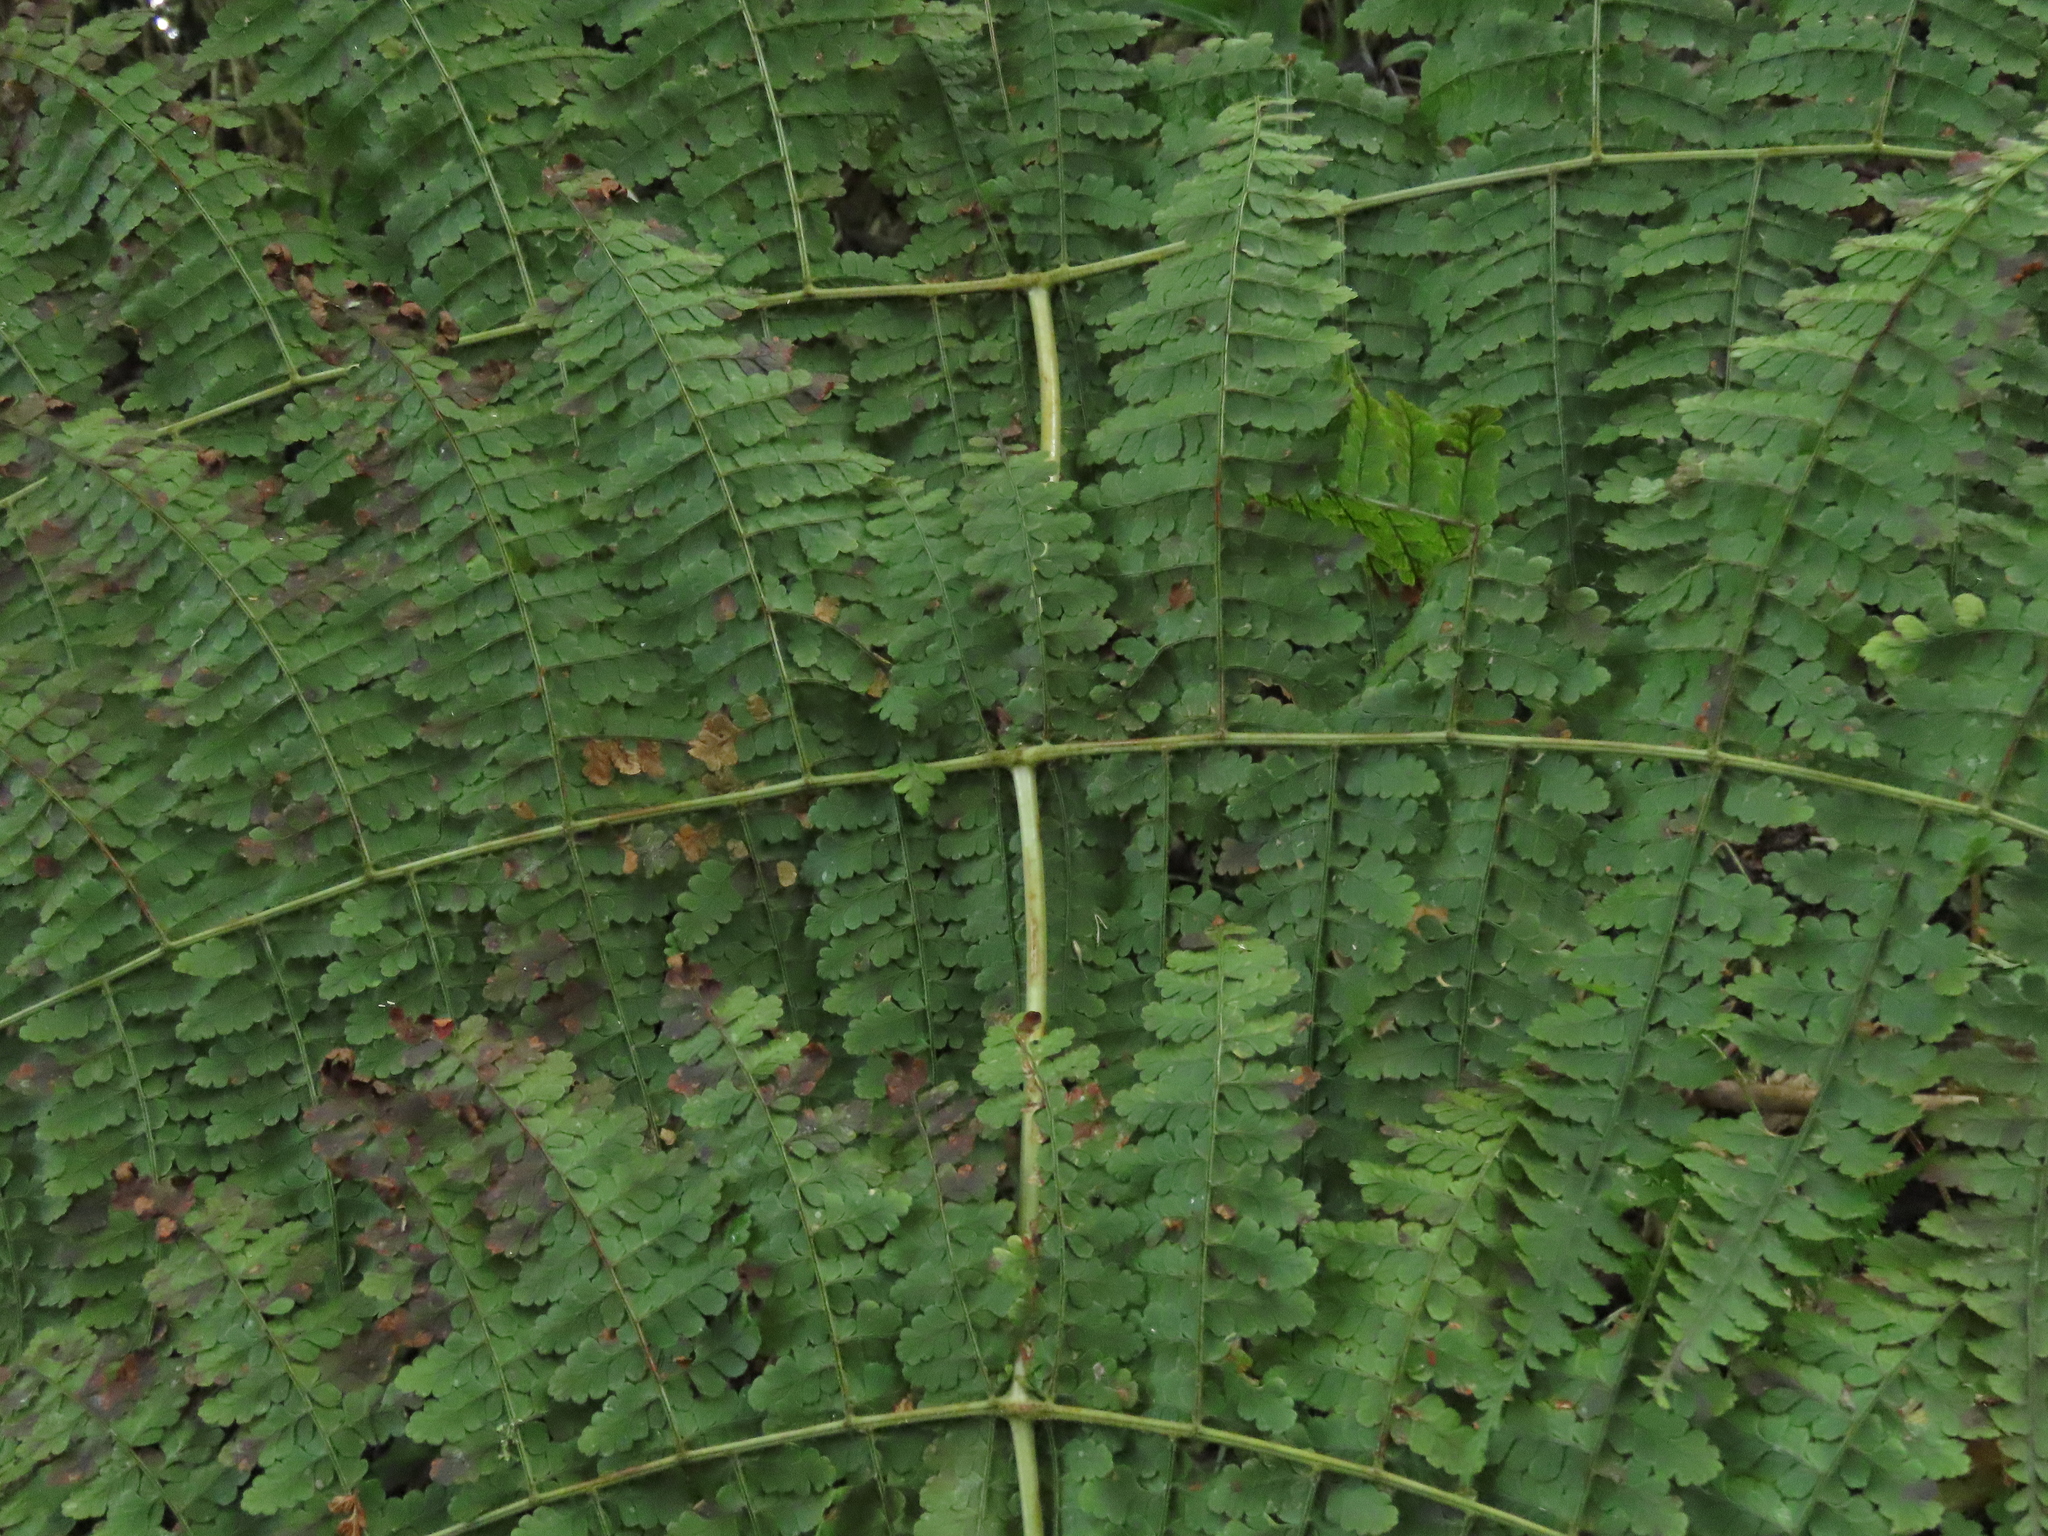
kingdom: Plantae
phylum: Tracheophyta
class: Polypodiopsida
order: Polypodiales
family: Dryopteridaceae
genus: Dryopteris
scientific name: Dryopteris paleolata
